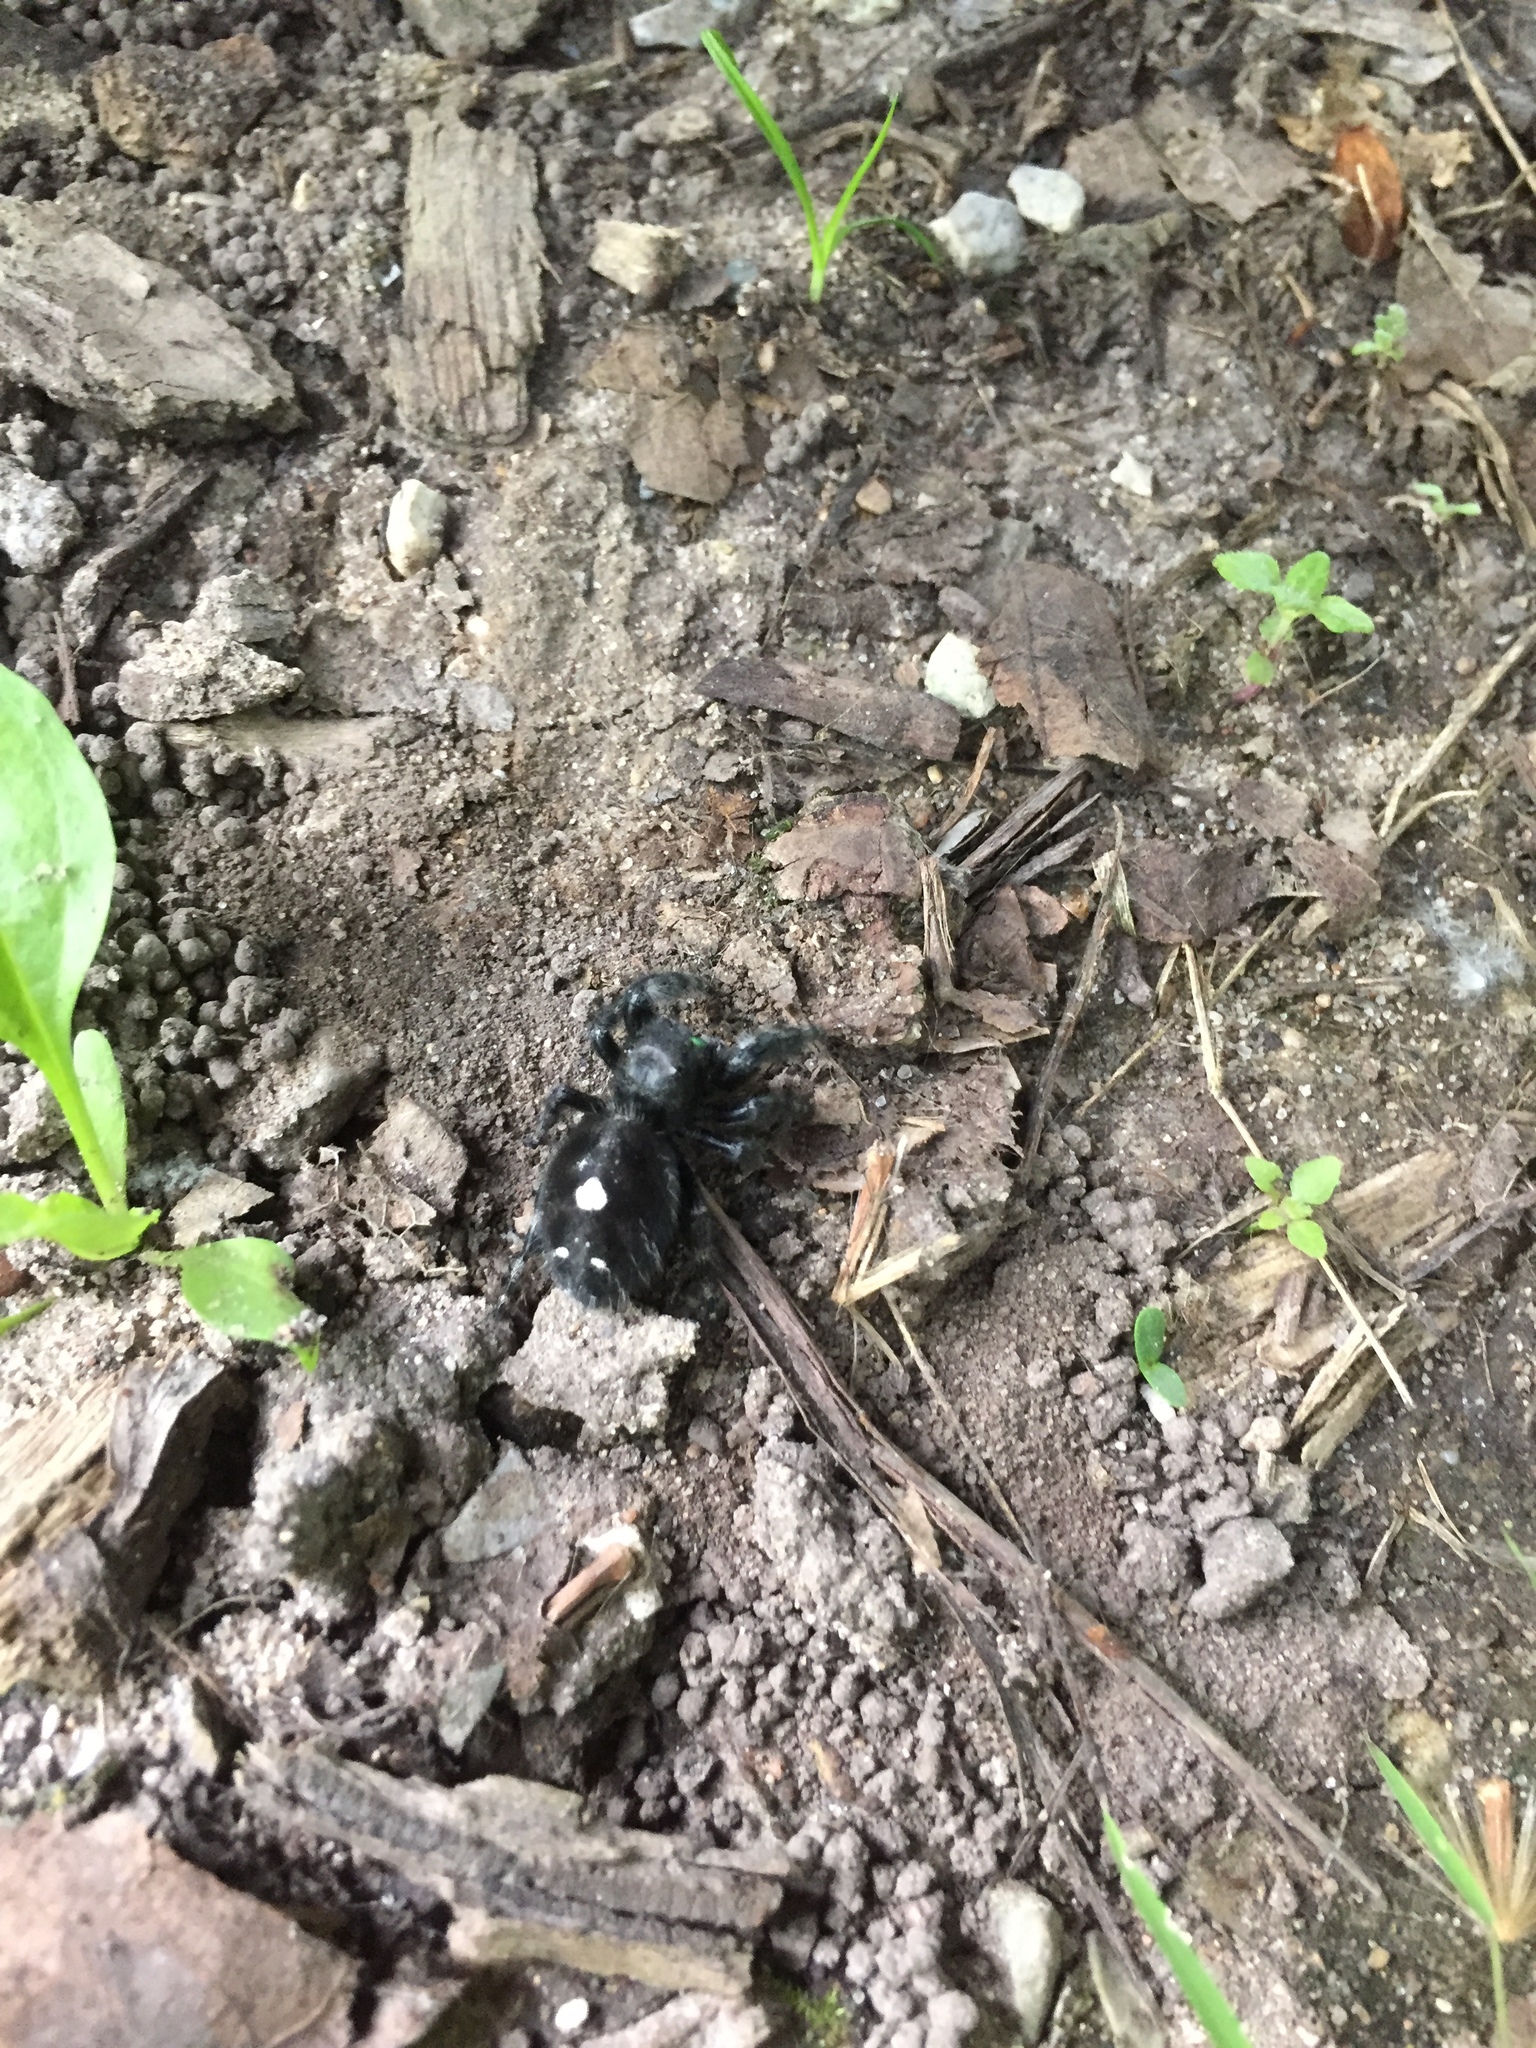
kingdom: Animalia
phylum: Arthropoda
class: Arachnida
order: Araneae
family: Salticidae
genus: Phidippus
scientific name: Phidippus audax
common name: Bold jumper
